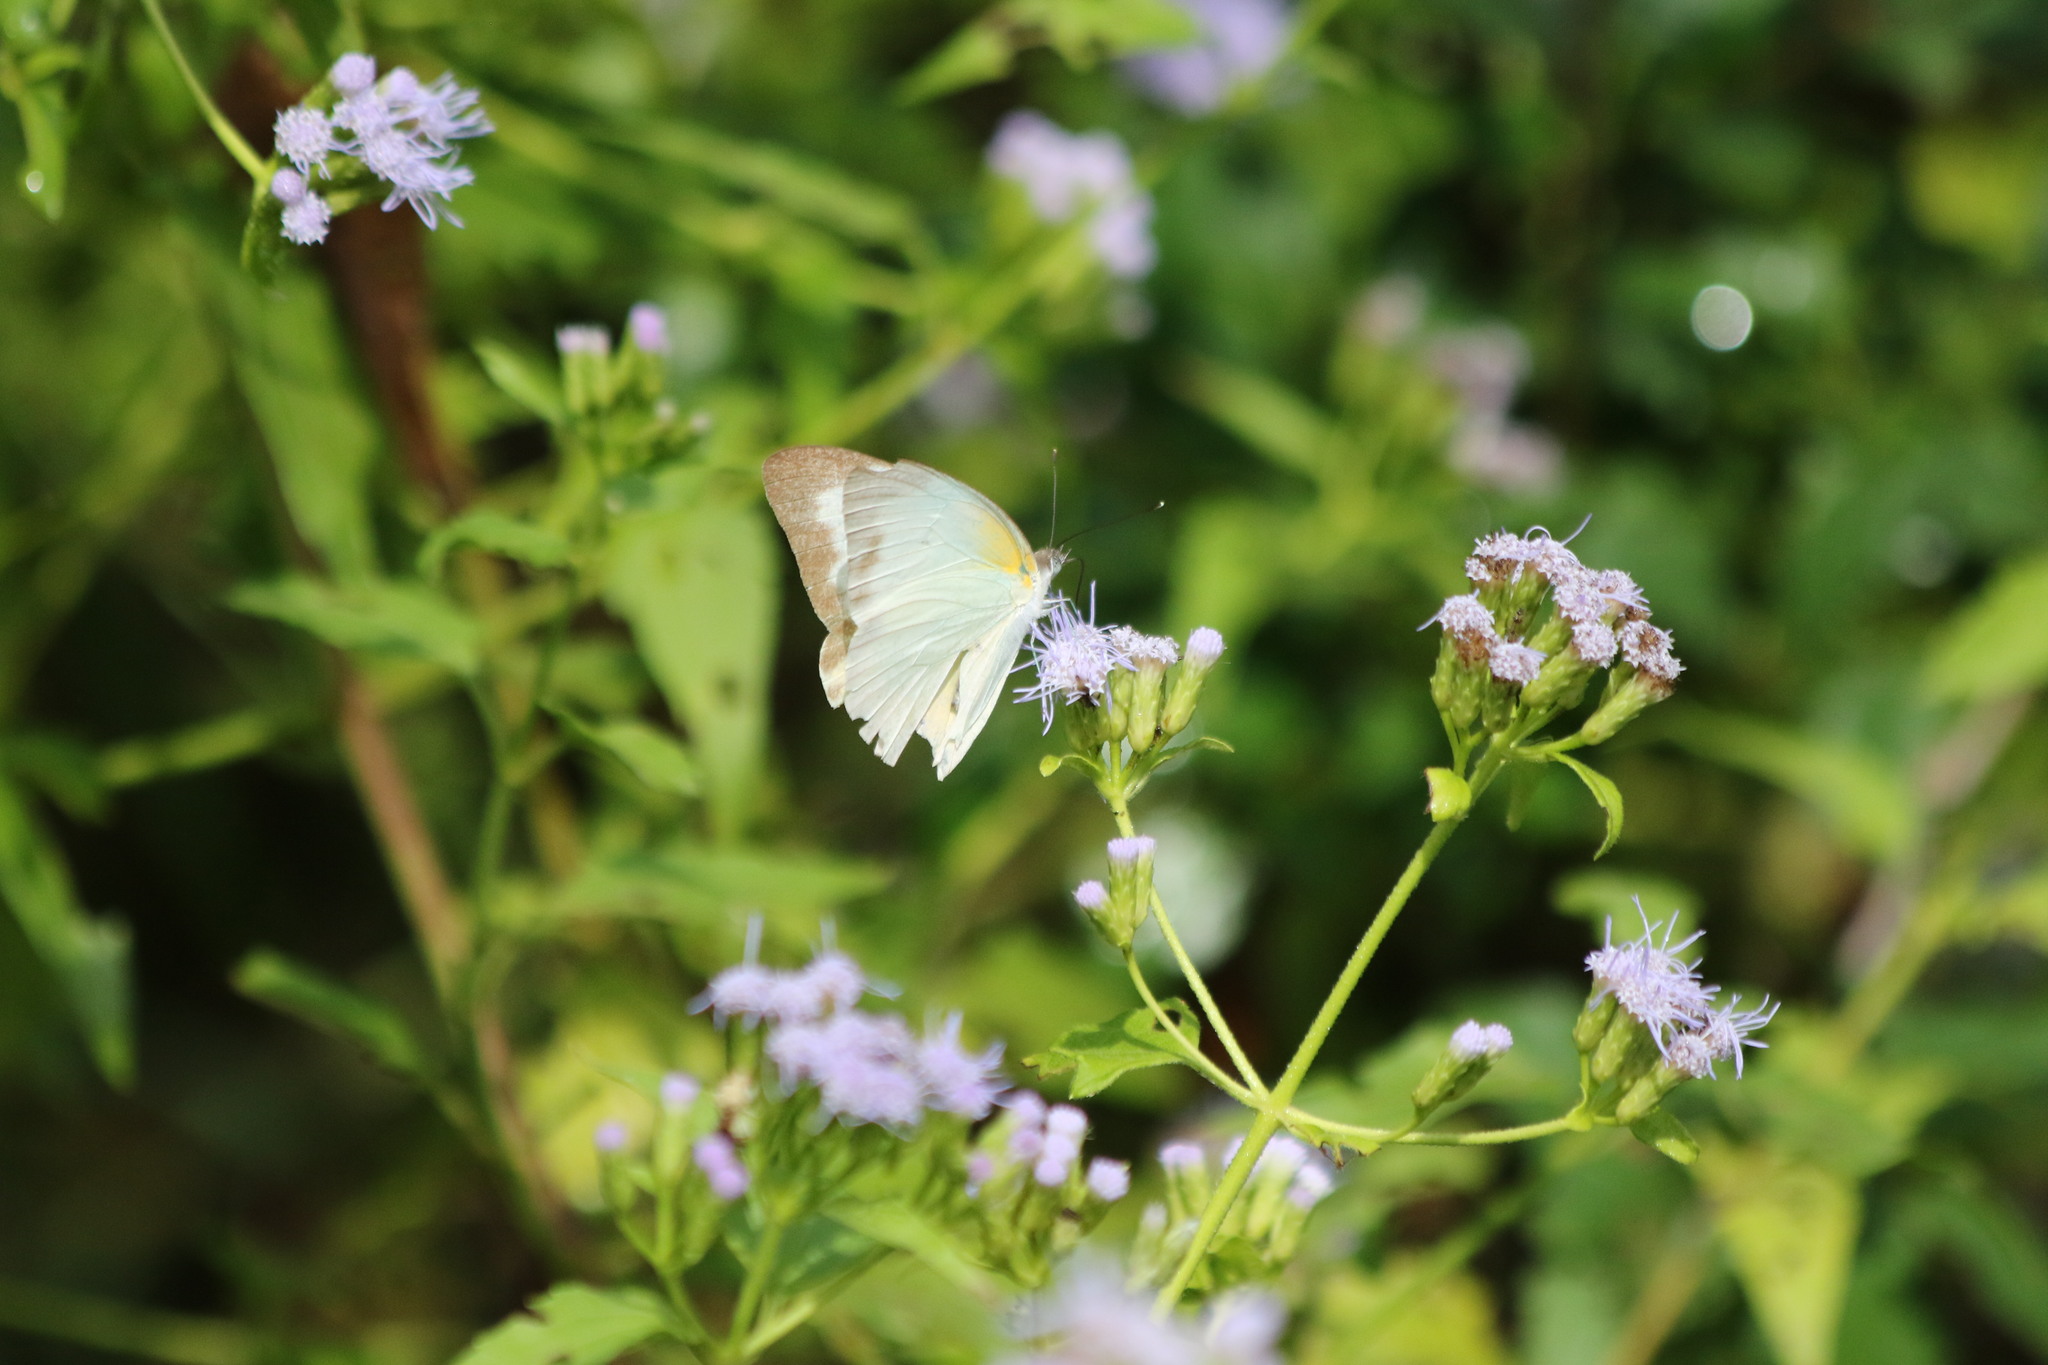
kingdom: Animalia
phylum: Arthropoda
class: Insecta
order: Lepidoptera
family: Pieridae
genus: Glutophrissa
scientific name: Glutophrissa drusilla
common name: Florida white
